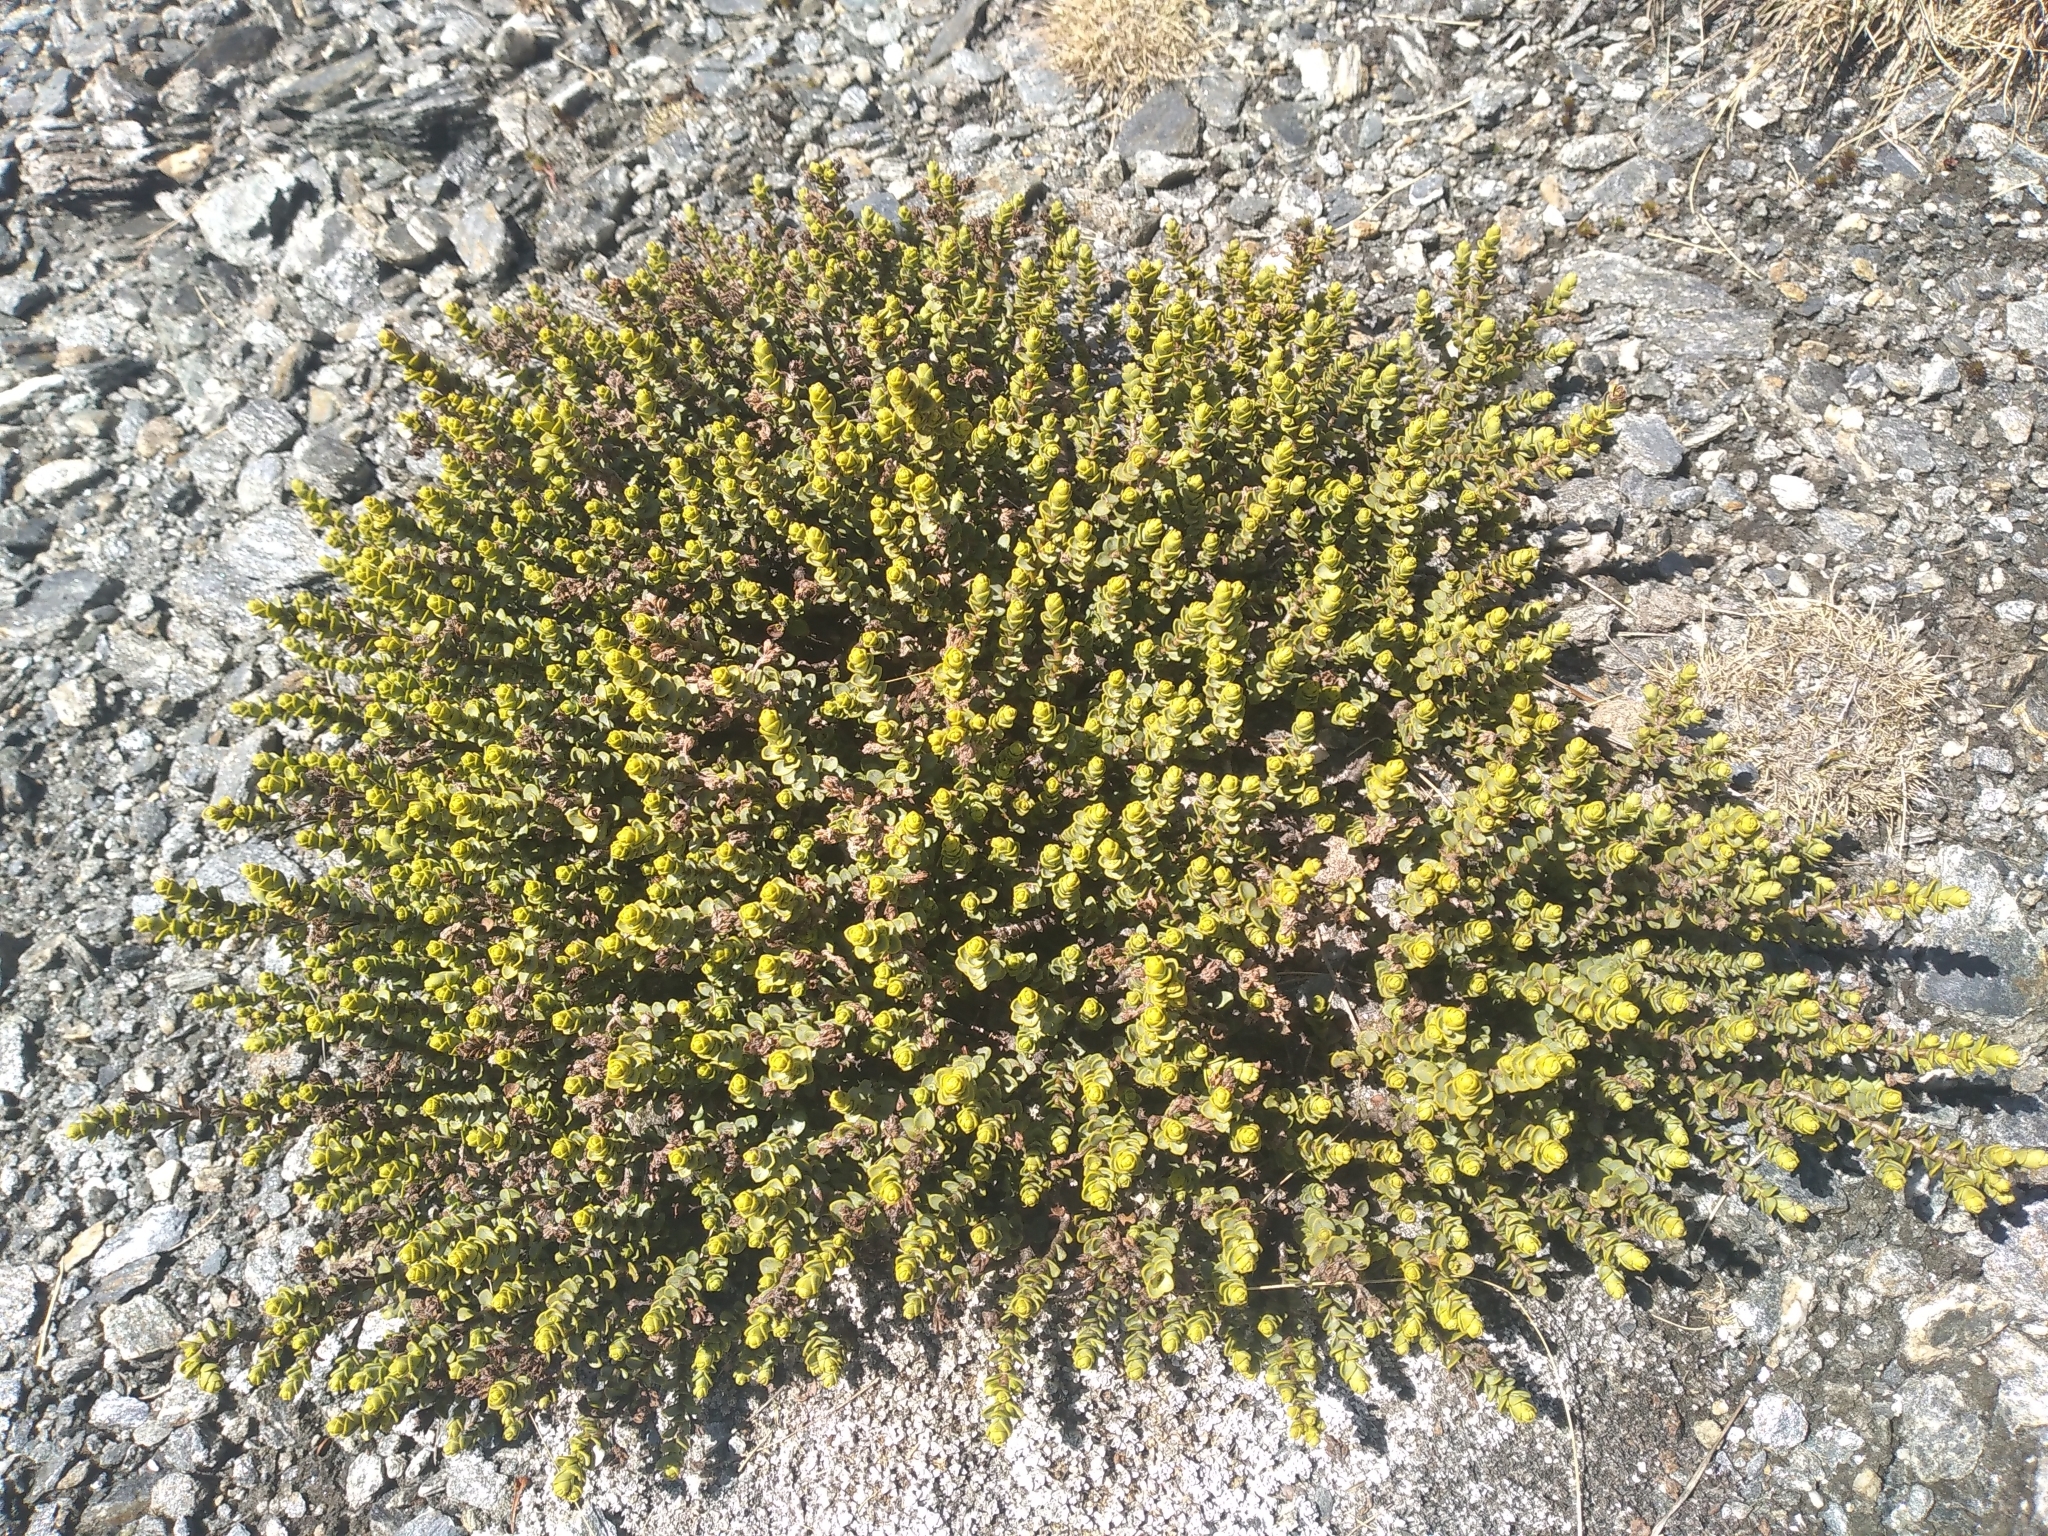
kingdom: Plantae
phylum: Tracheophyta
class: Magnoliopsida
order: Lamiales
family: Plantaginaceae
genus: Veronica
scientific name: Veronica buchananii
